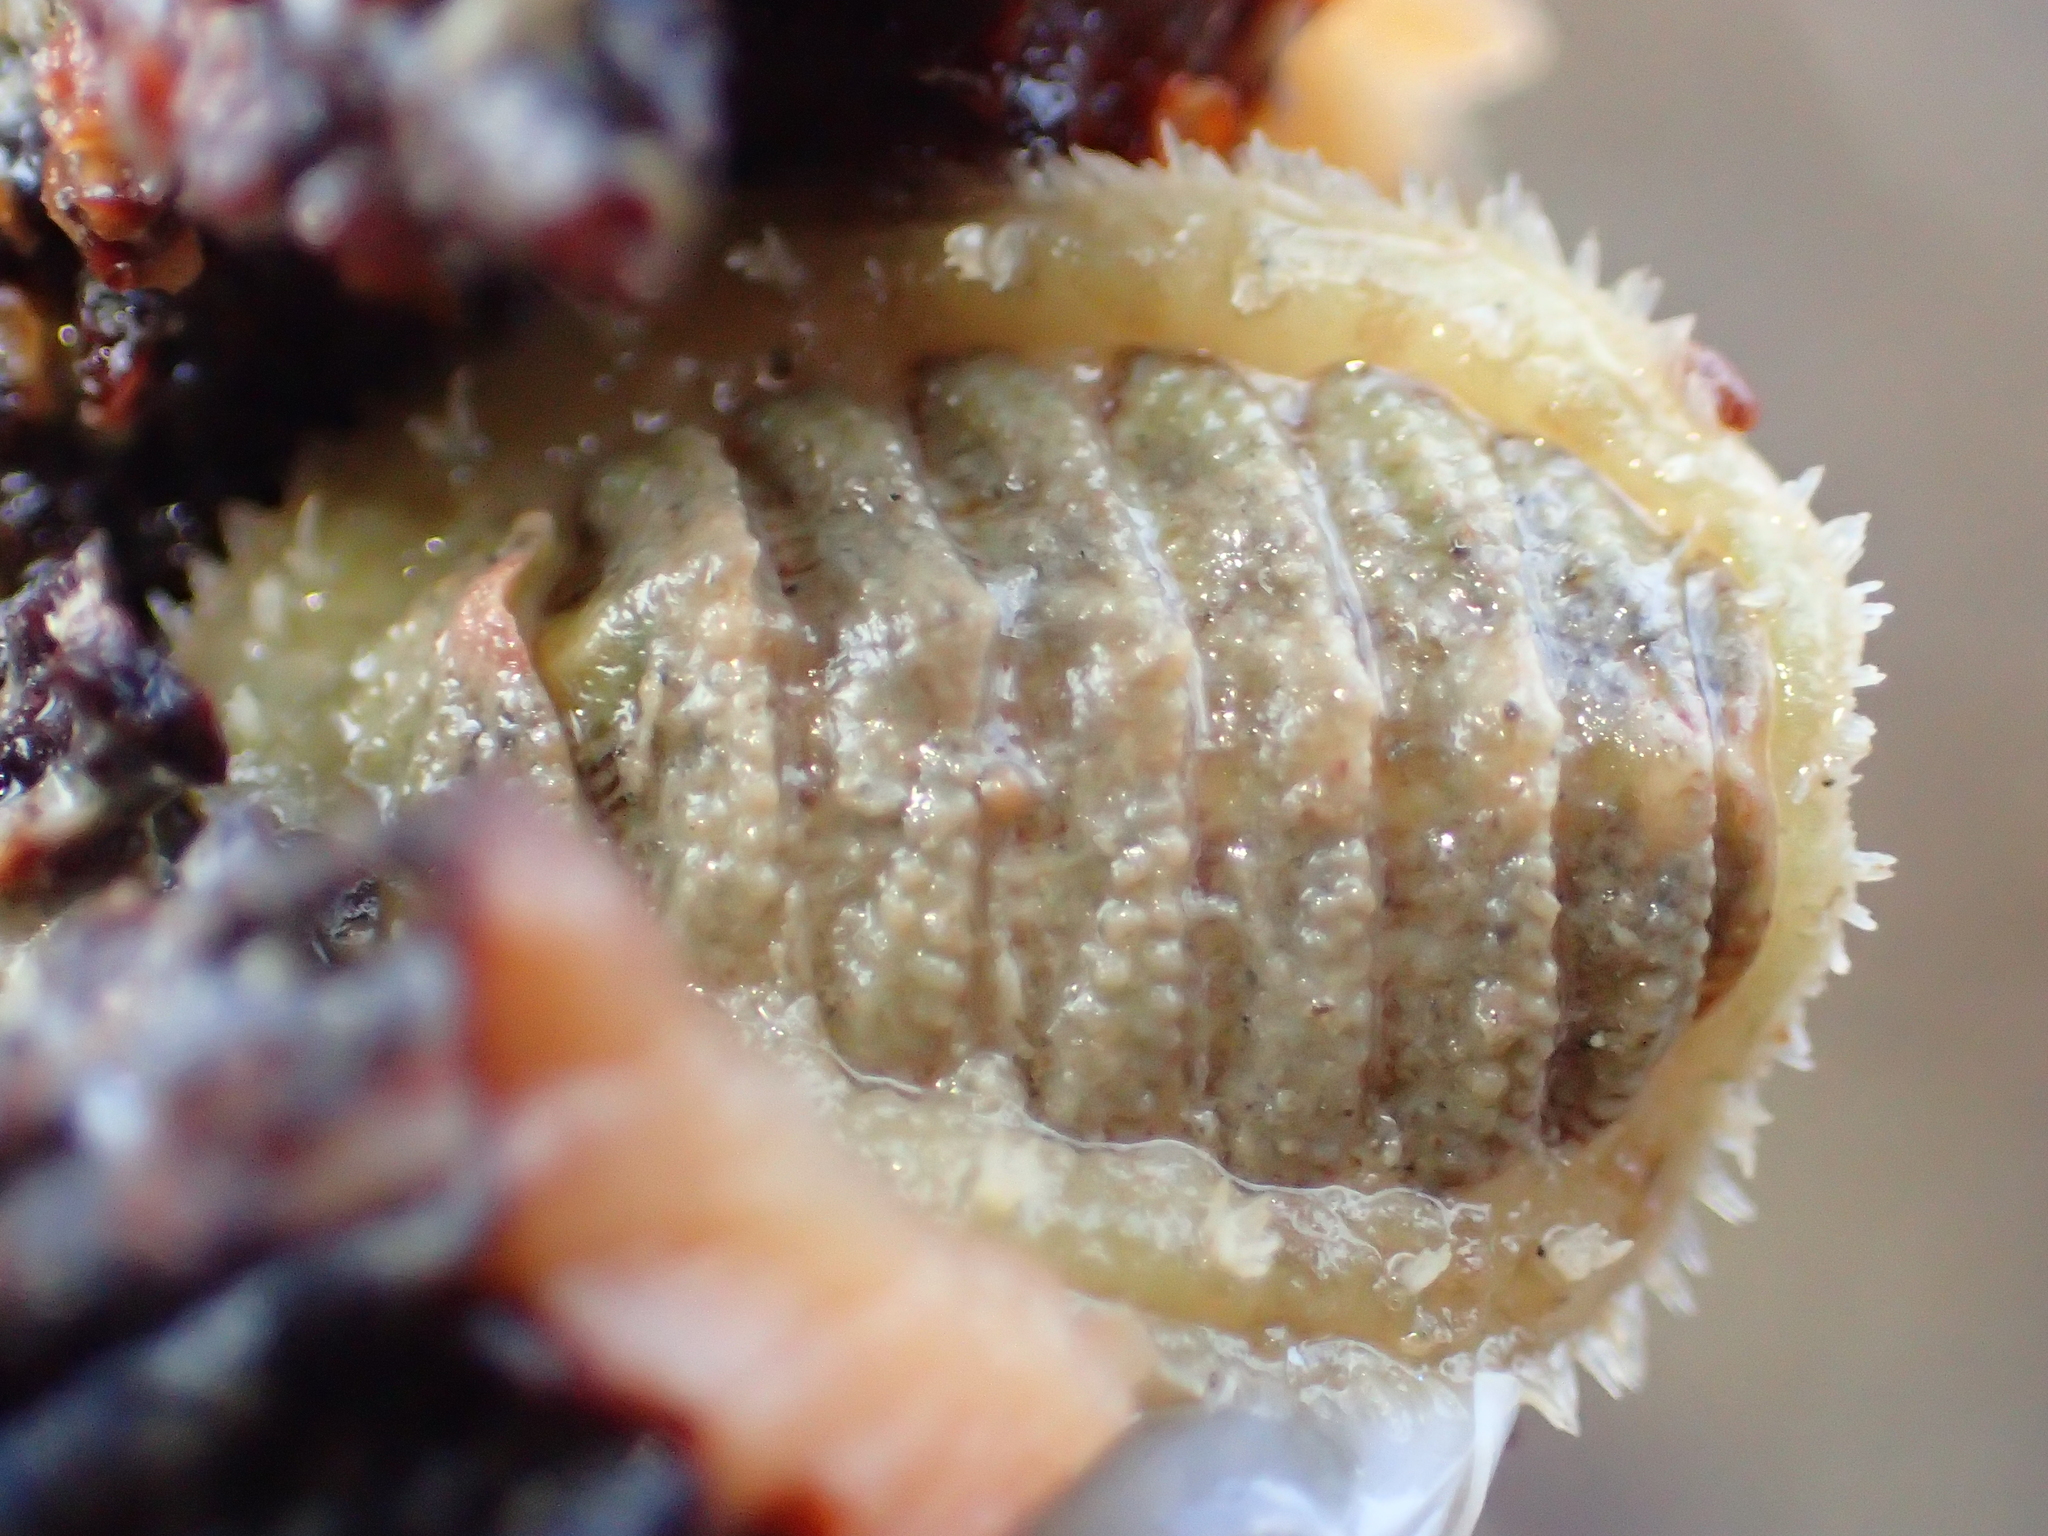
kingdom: Animalia
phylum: Mollusca
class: Polyplacophora
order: Chitonida
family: Mopaliidae
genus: Plaxiphora
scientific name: Plaxiphora egregia
